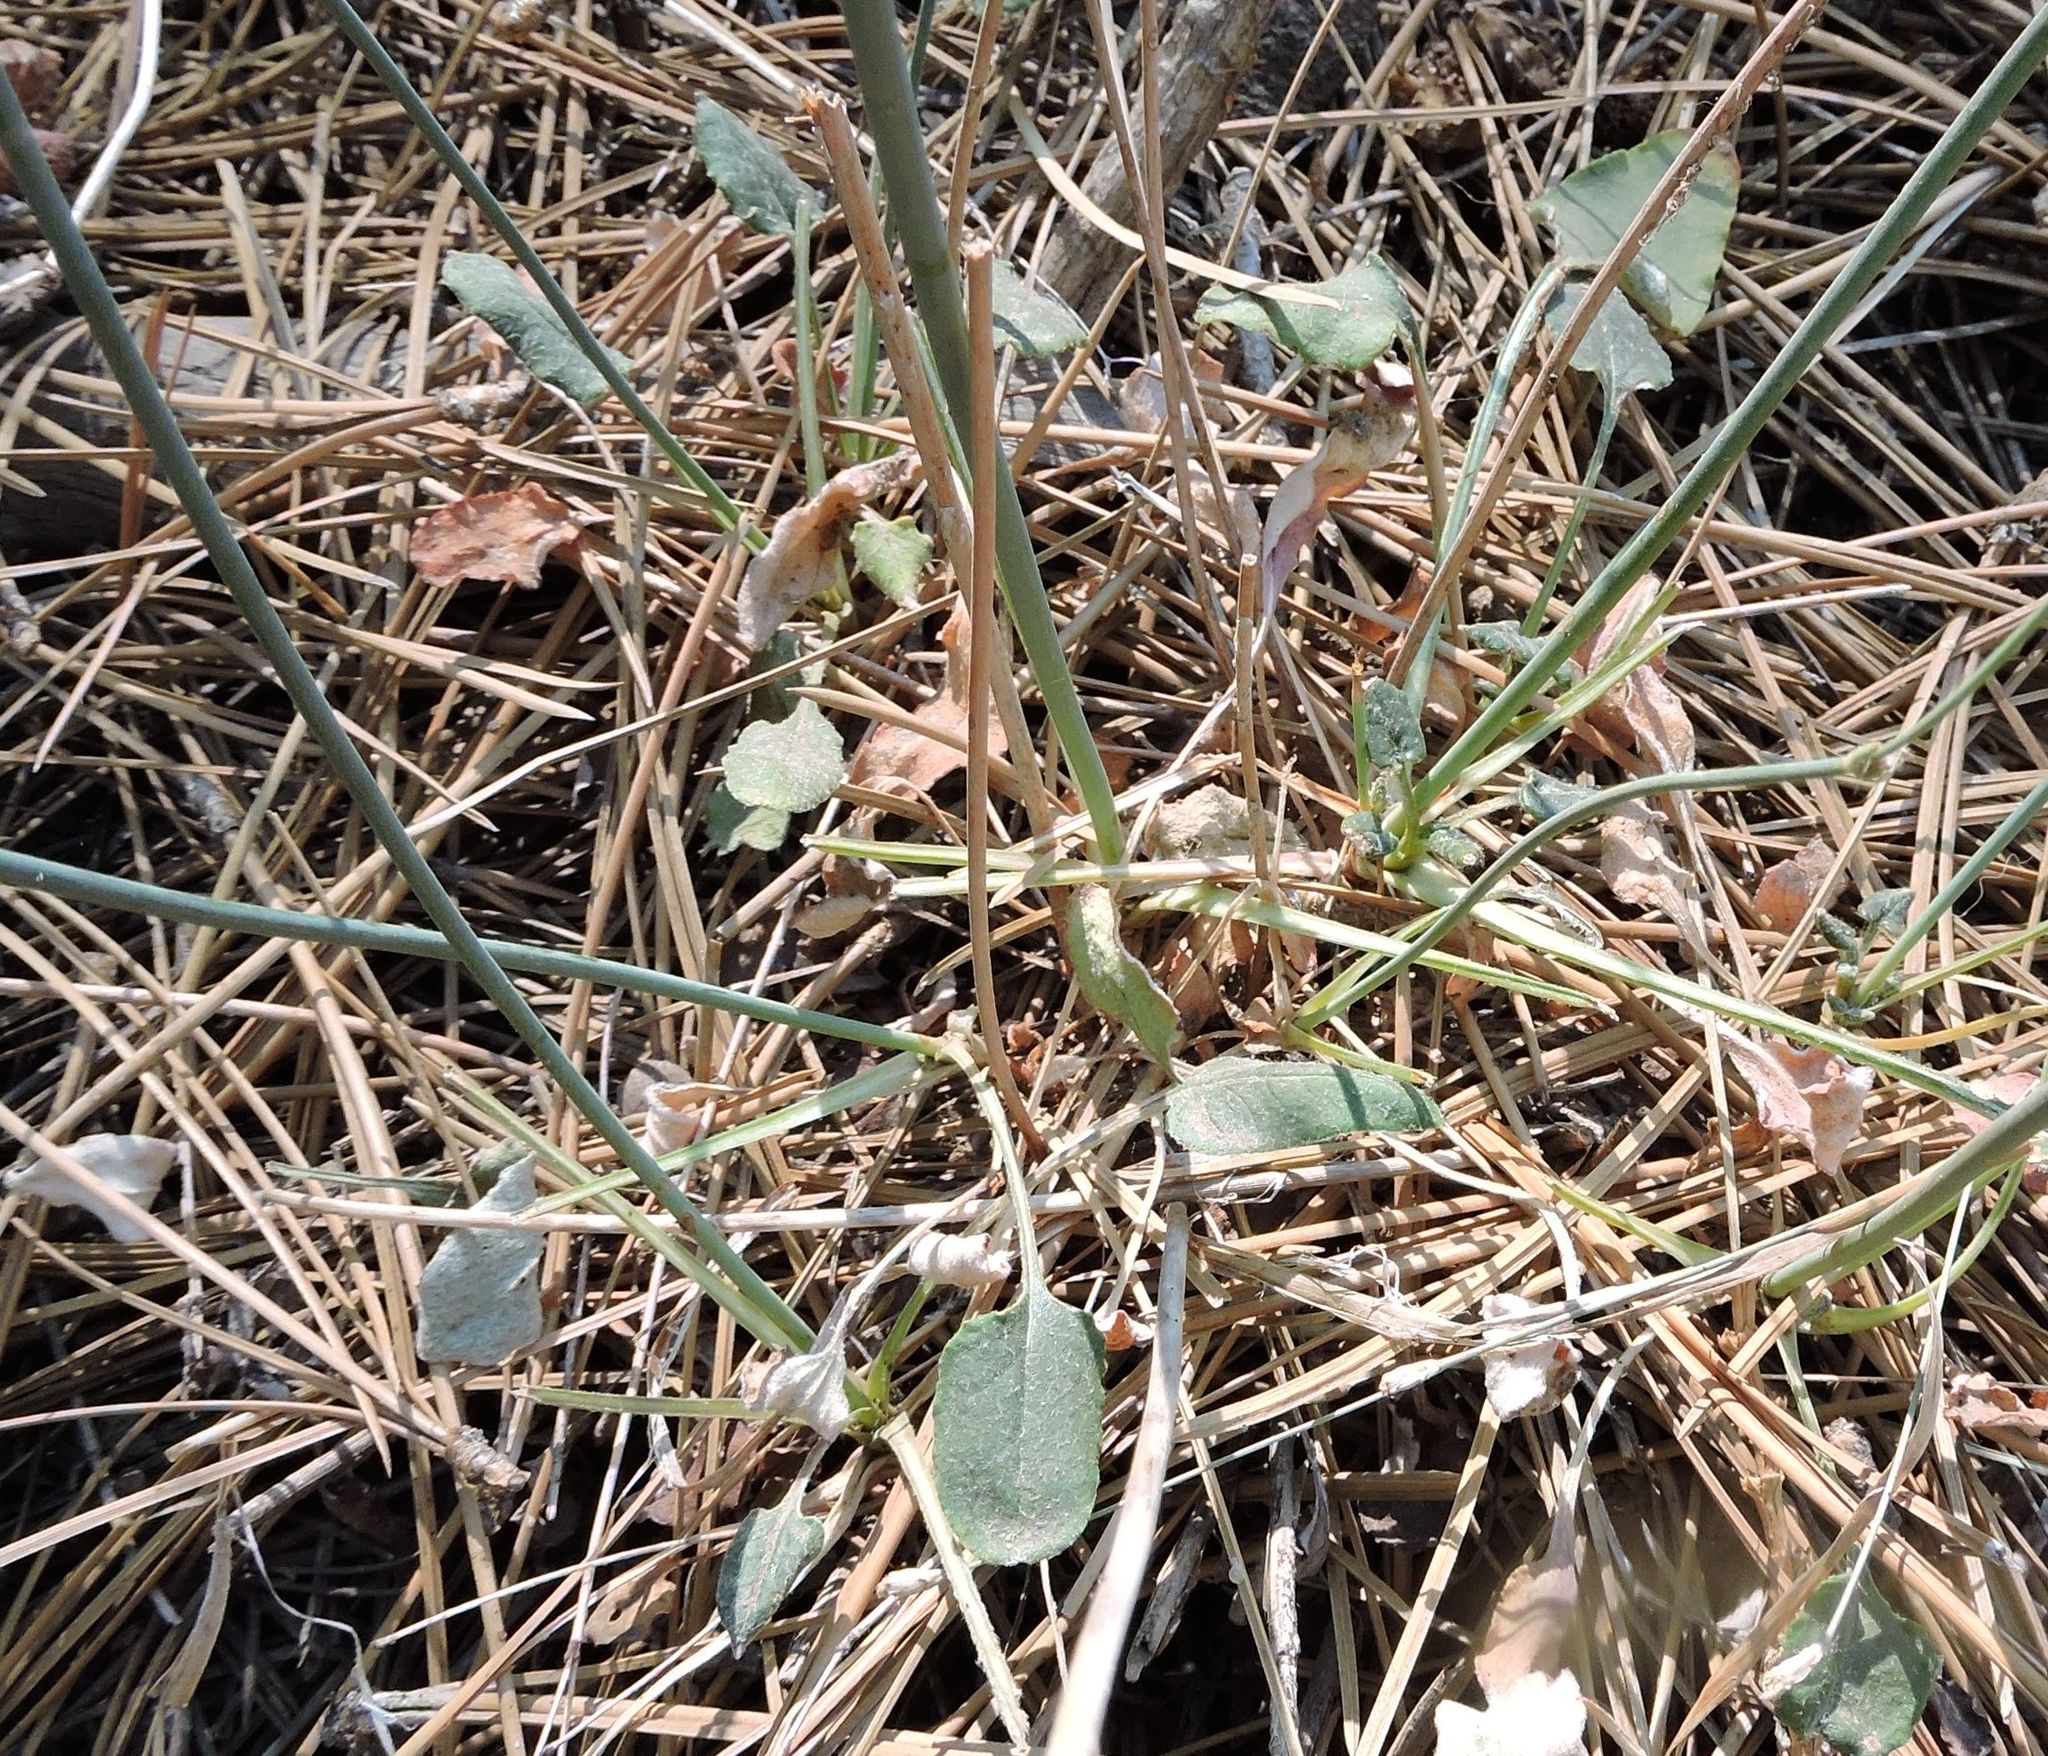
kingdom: Plantae
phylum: Tracheophyta
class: Magnoliopsida
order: Caryophyllales
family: Polygonaceae
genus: Eriogonum
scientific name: Eriogonum nudum
